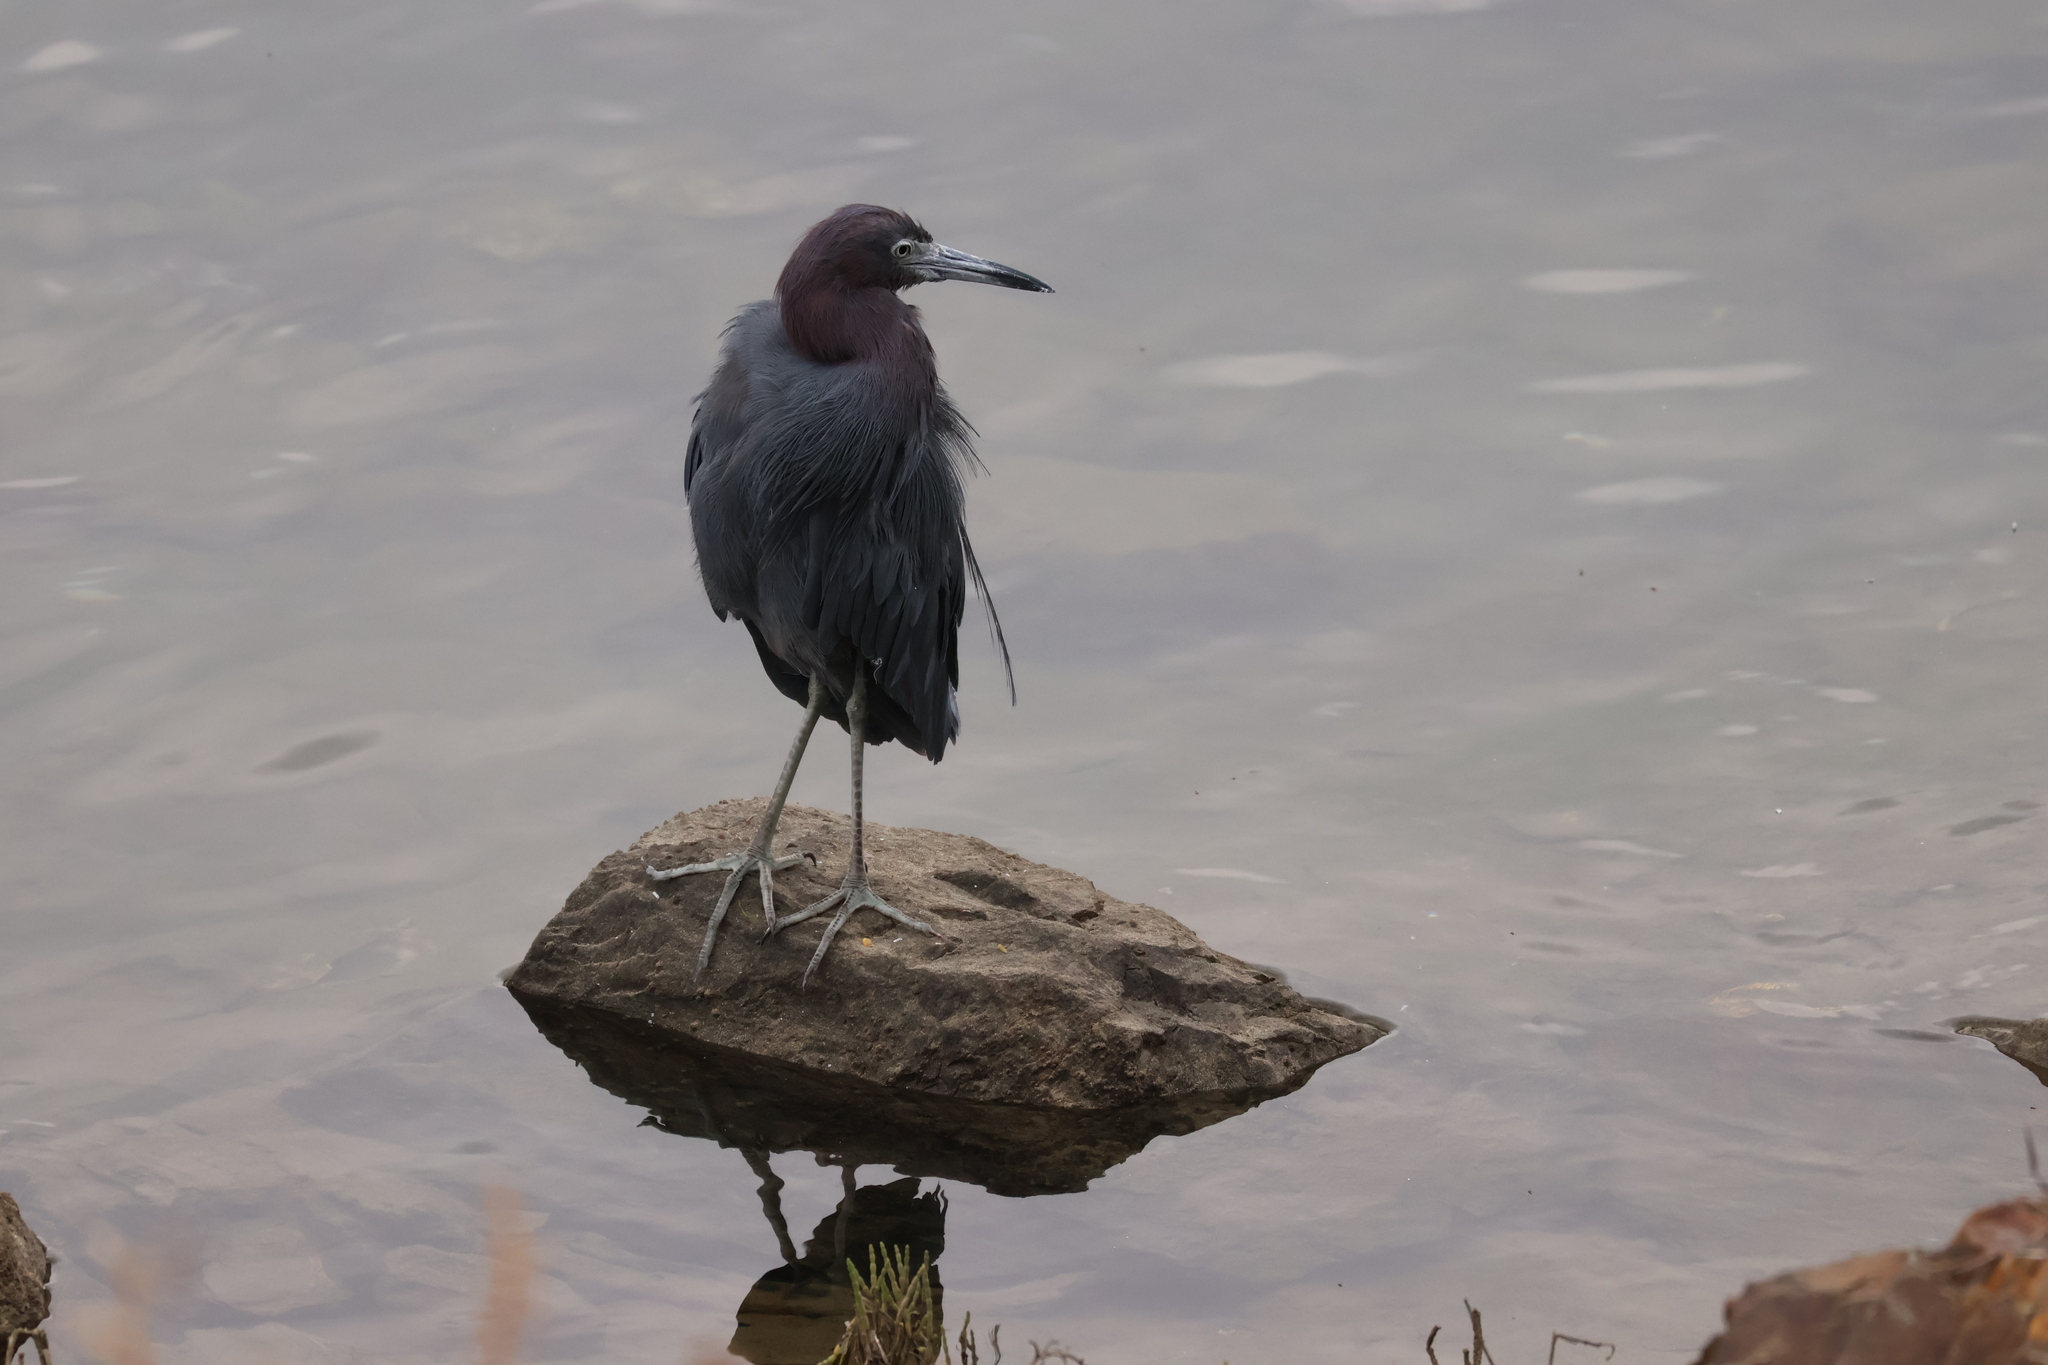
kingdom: Animalia
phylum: Chordata
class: Aves
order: Pelecaniformes
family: Ardeidae
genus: Egretta
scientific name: Egretta caerulea
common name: Little blue heron
